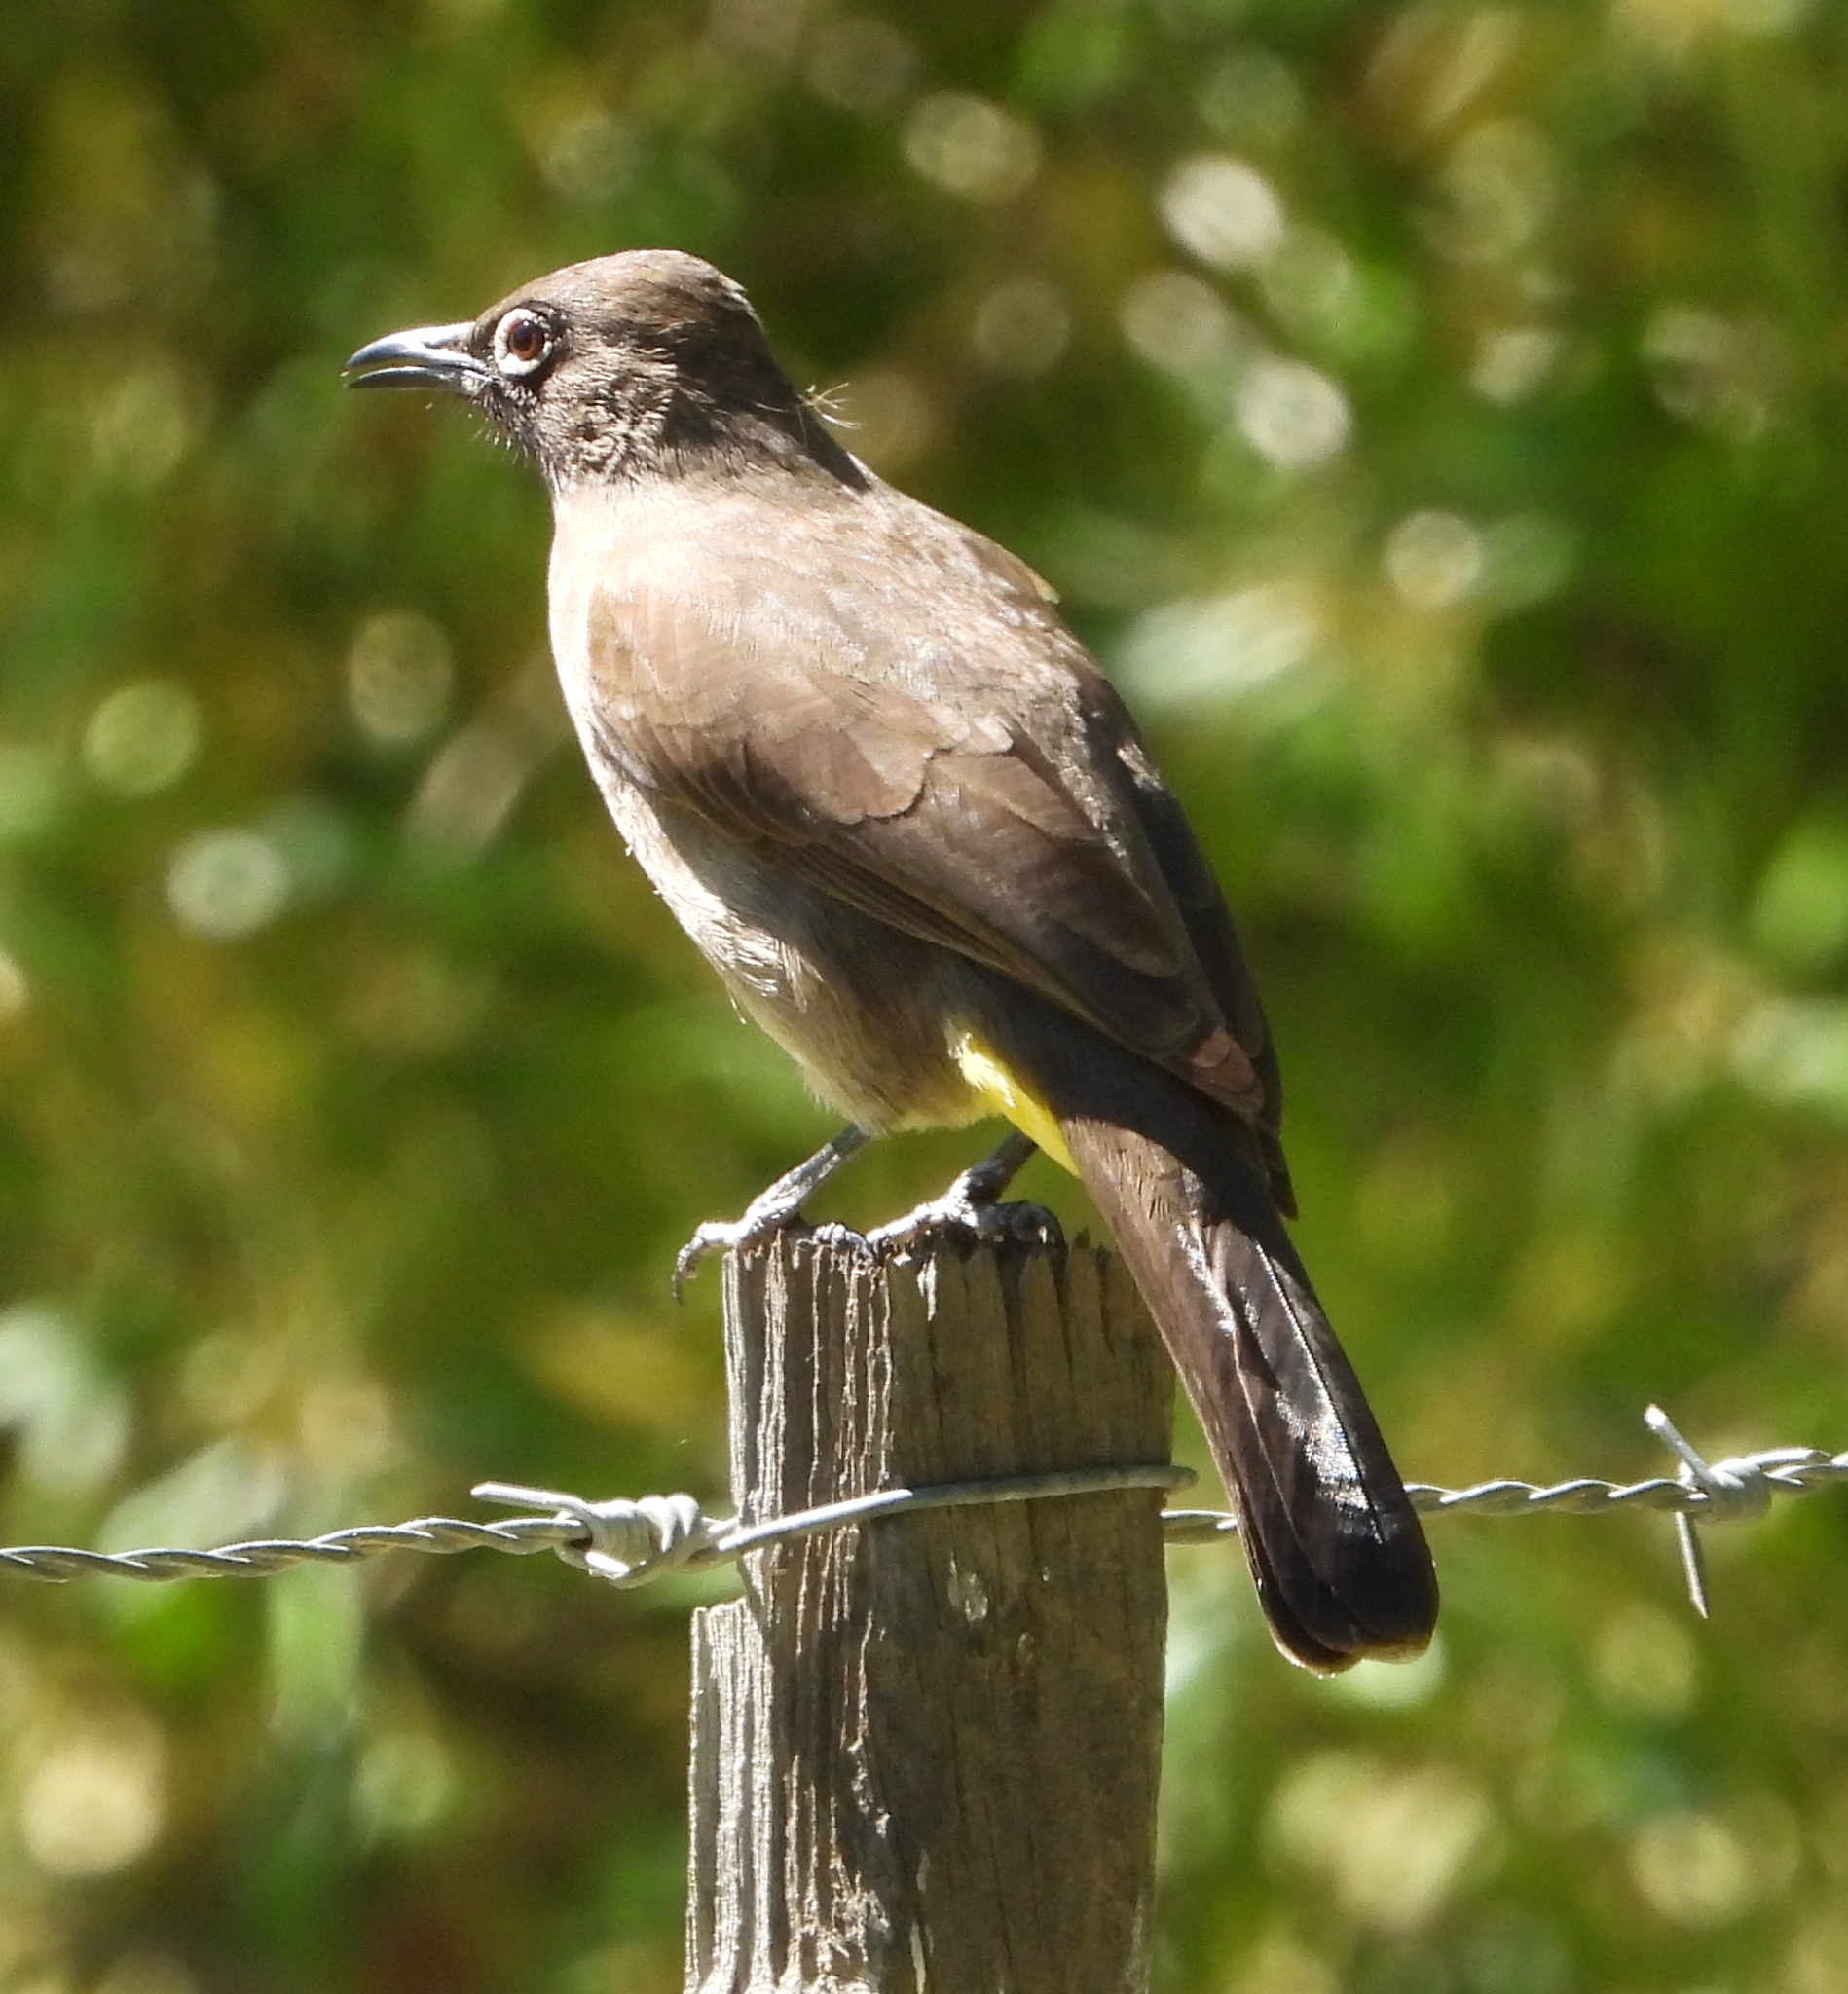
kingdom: Animalia
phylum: Chordata
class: Aves
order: Passeriformes
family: Pycnonotidae
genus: Pycnonotus
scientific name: Pycnonotus capensis
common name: Cape bulbul
